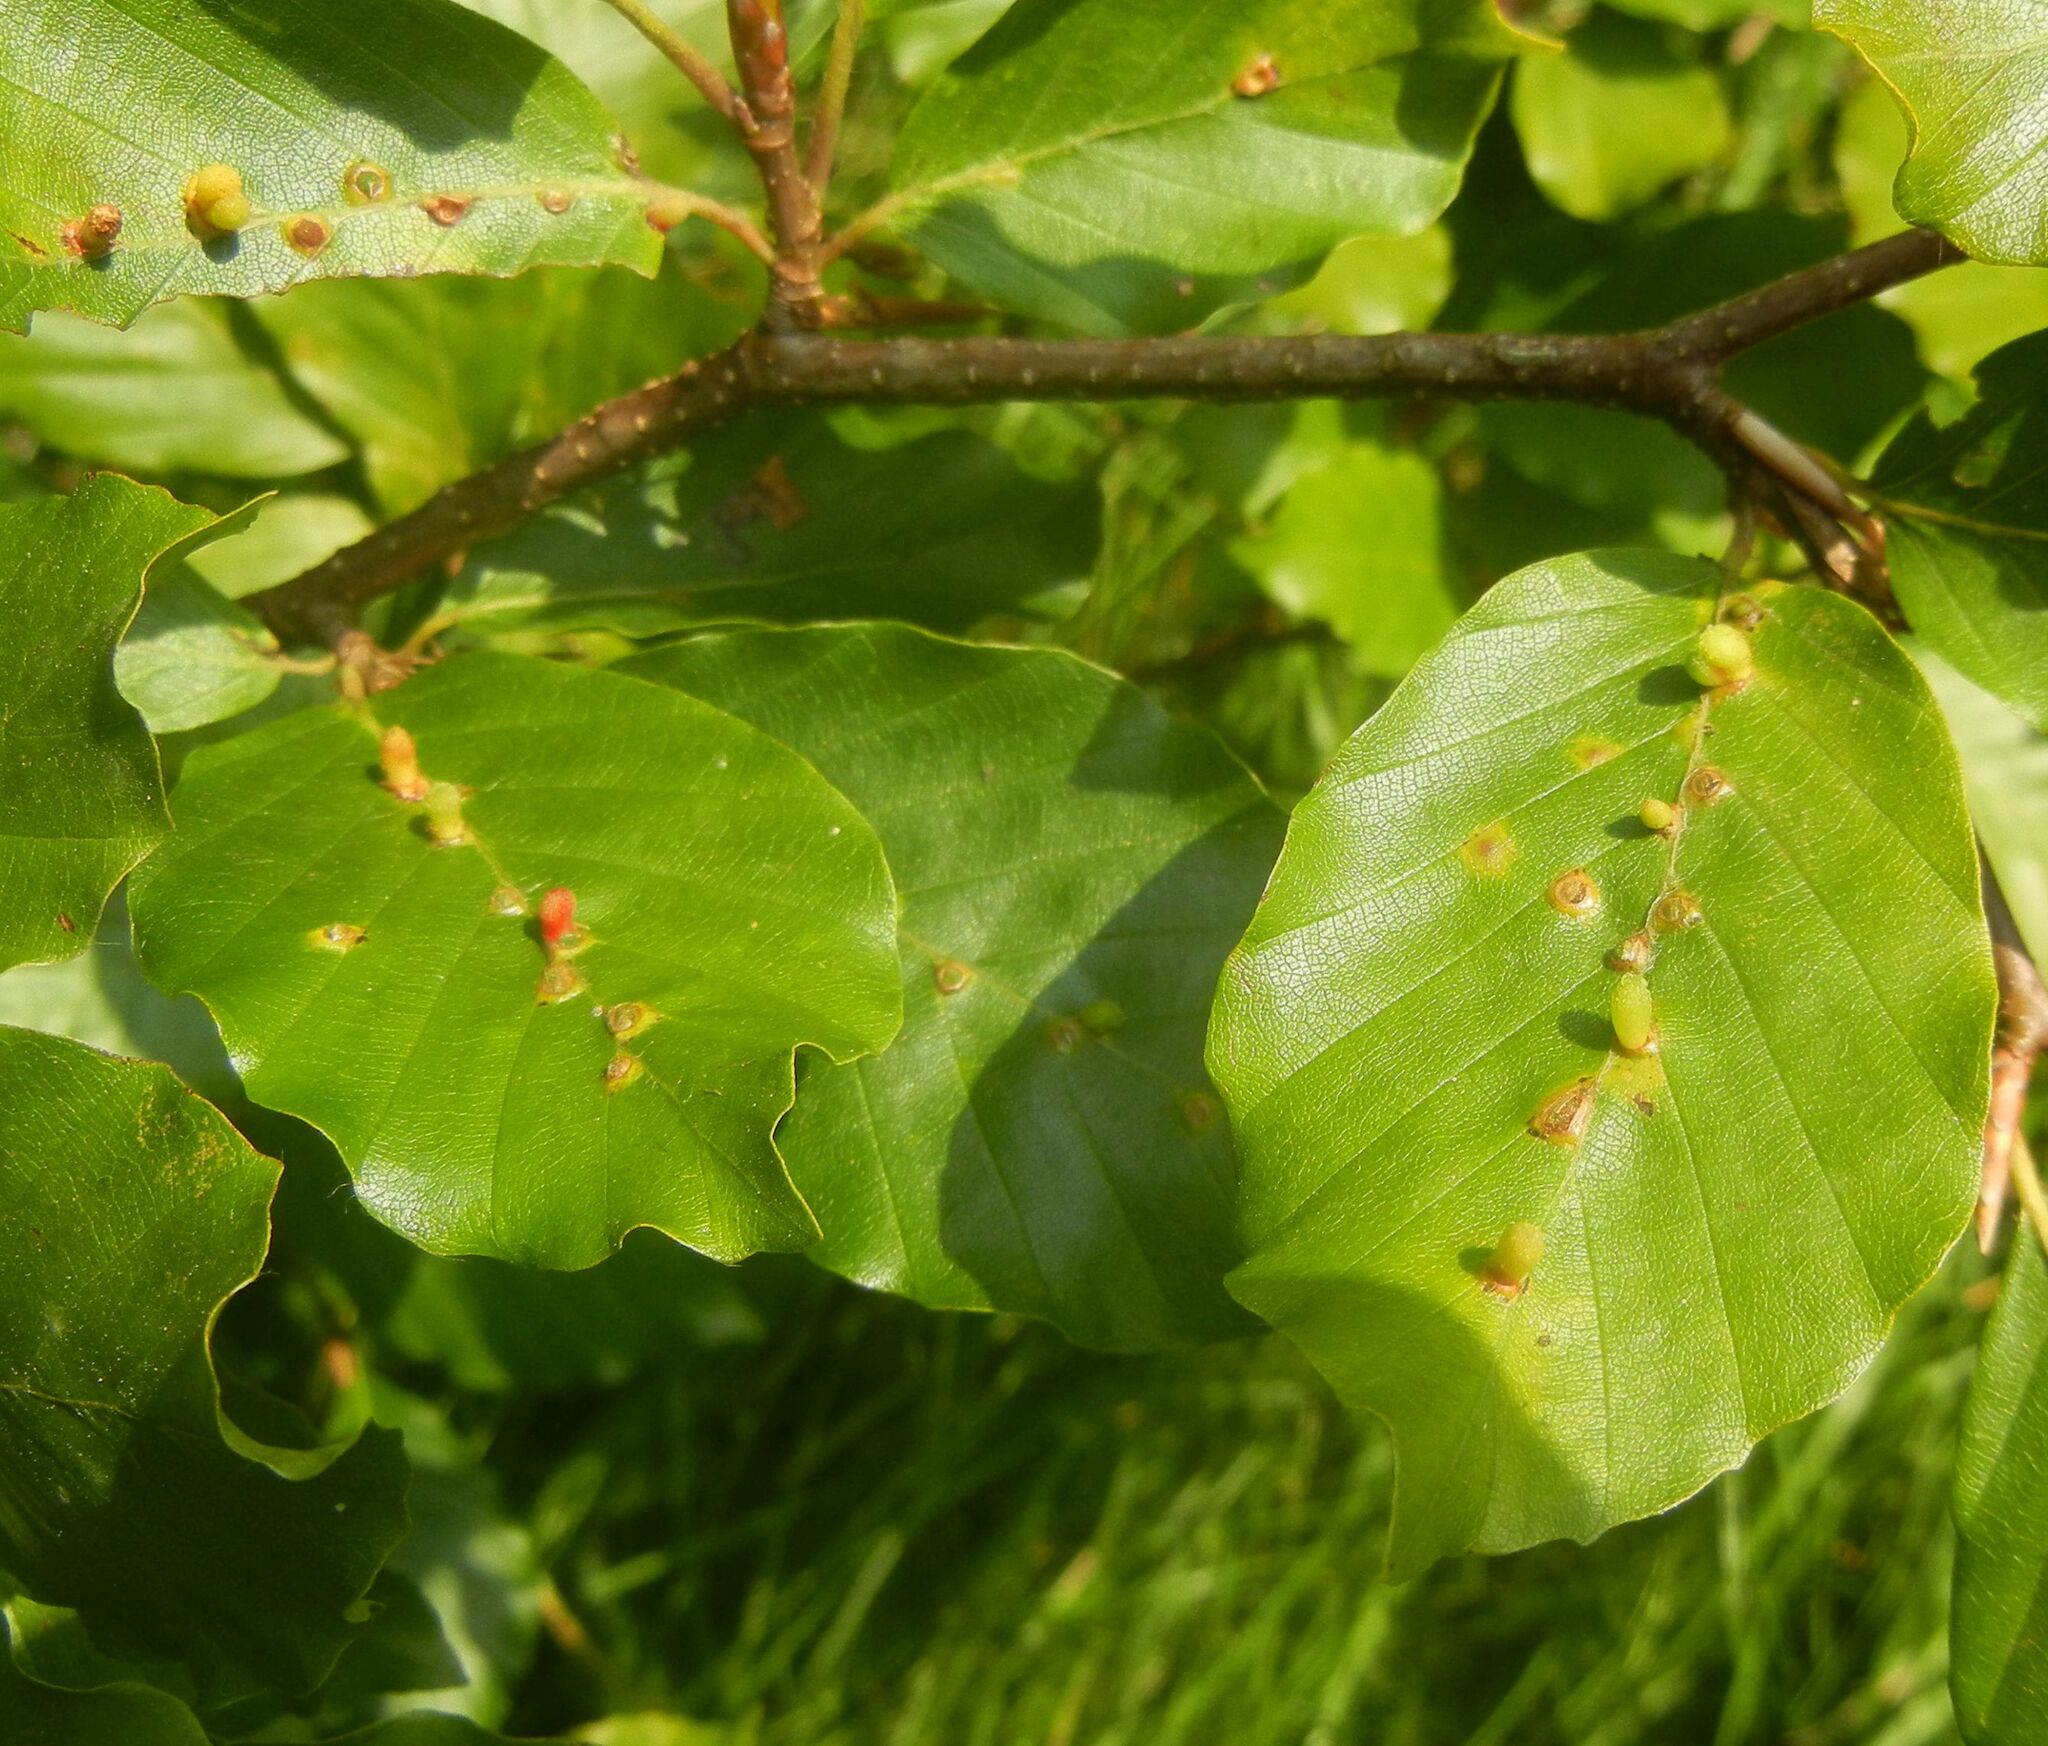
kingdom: Animalia
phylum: Arthropoda
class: Insecta
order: Diptera
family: Cecidomyiidae
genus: Hartigiola
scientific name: Hartigiola annulipes
